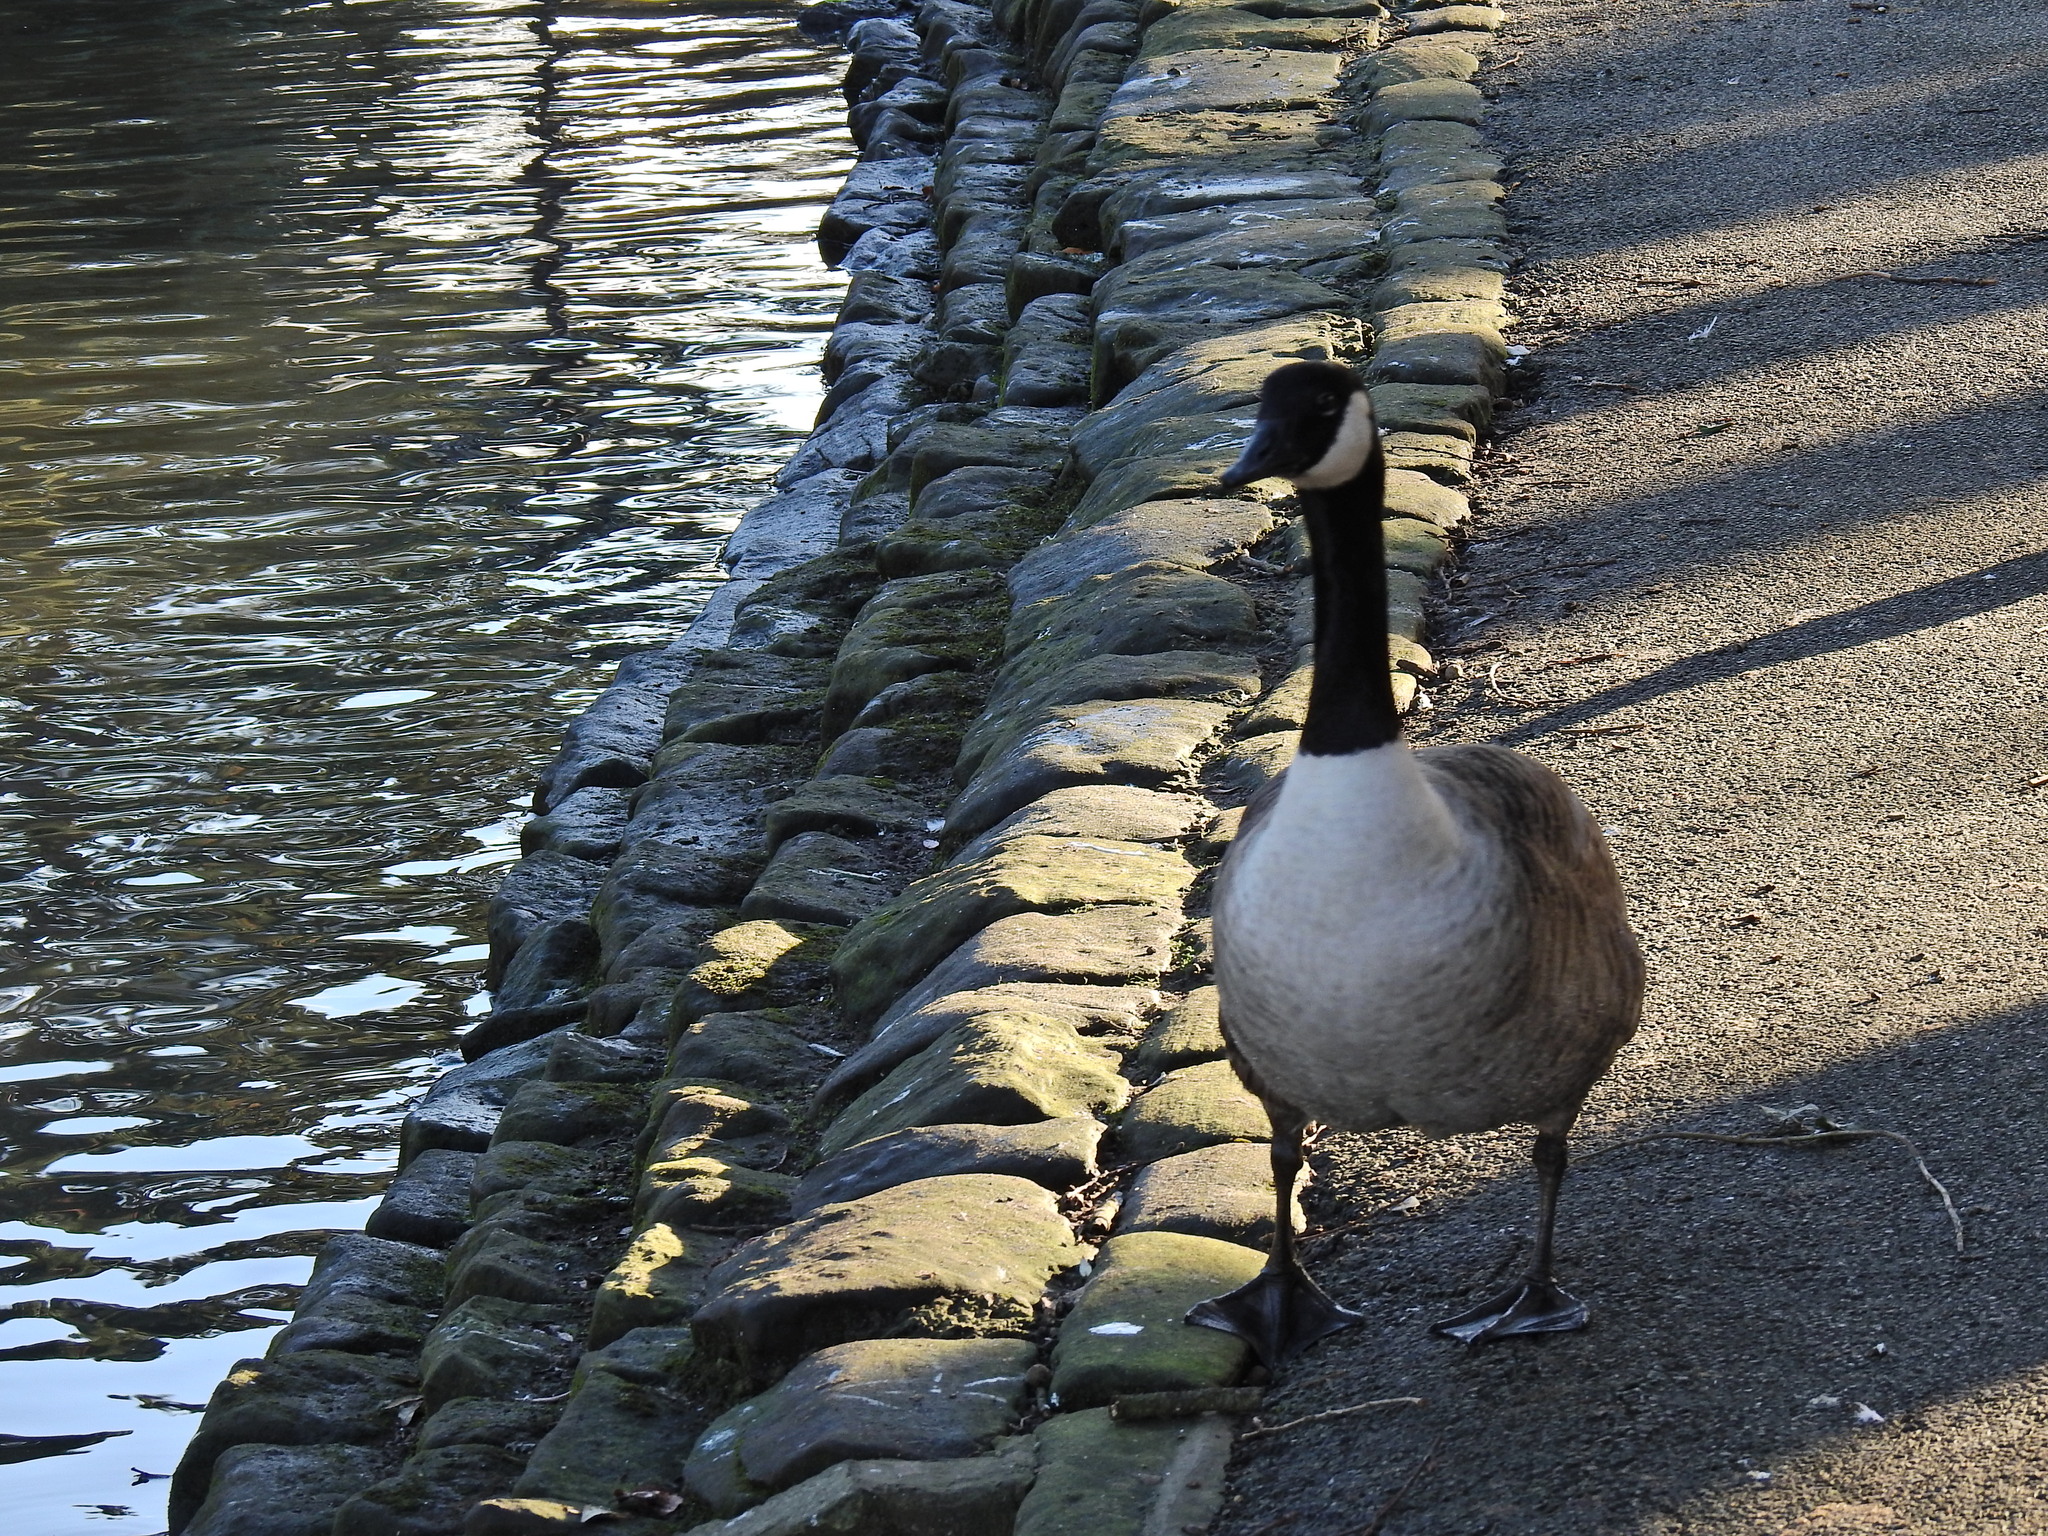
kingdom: Animalia
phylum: Chordata
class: Aves
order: Anseriformes
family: Anatidae
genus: Branta
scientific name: Branta canadensis
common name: Canada goose
